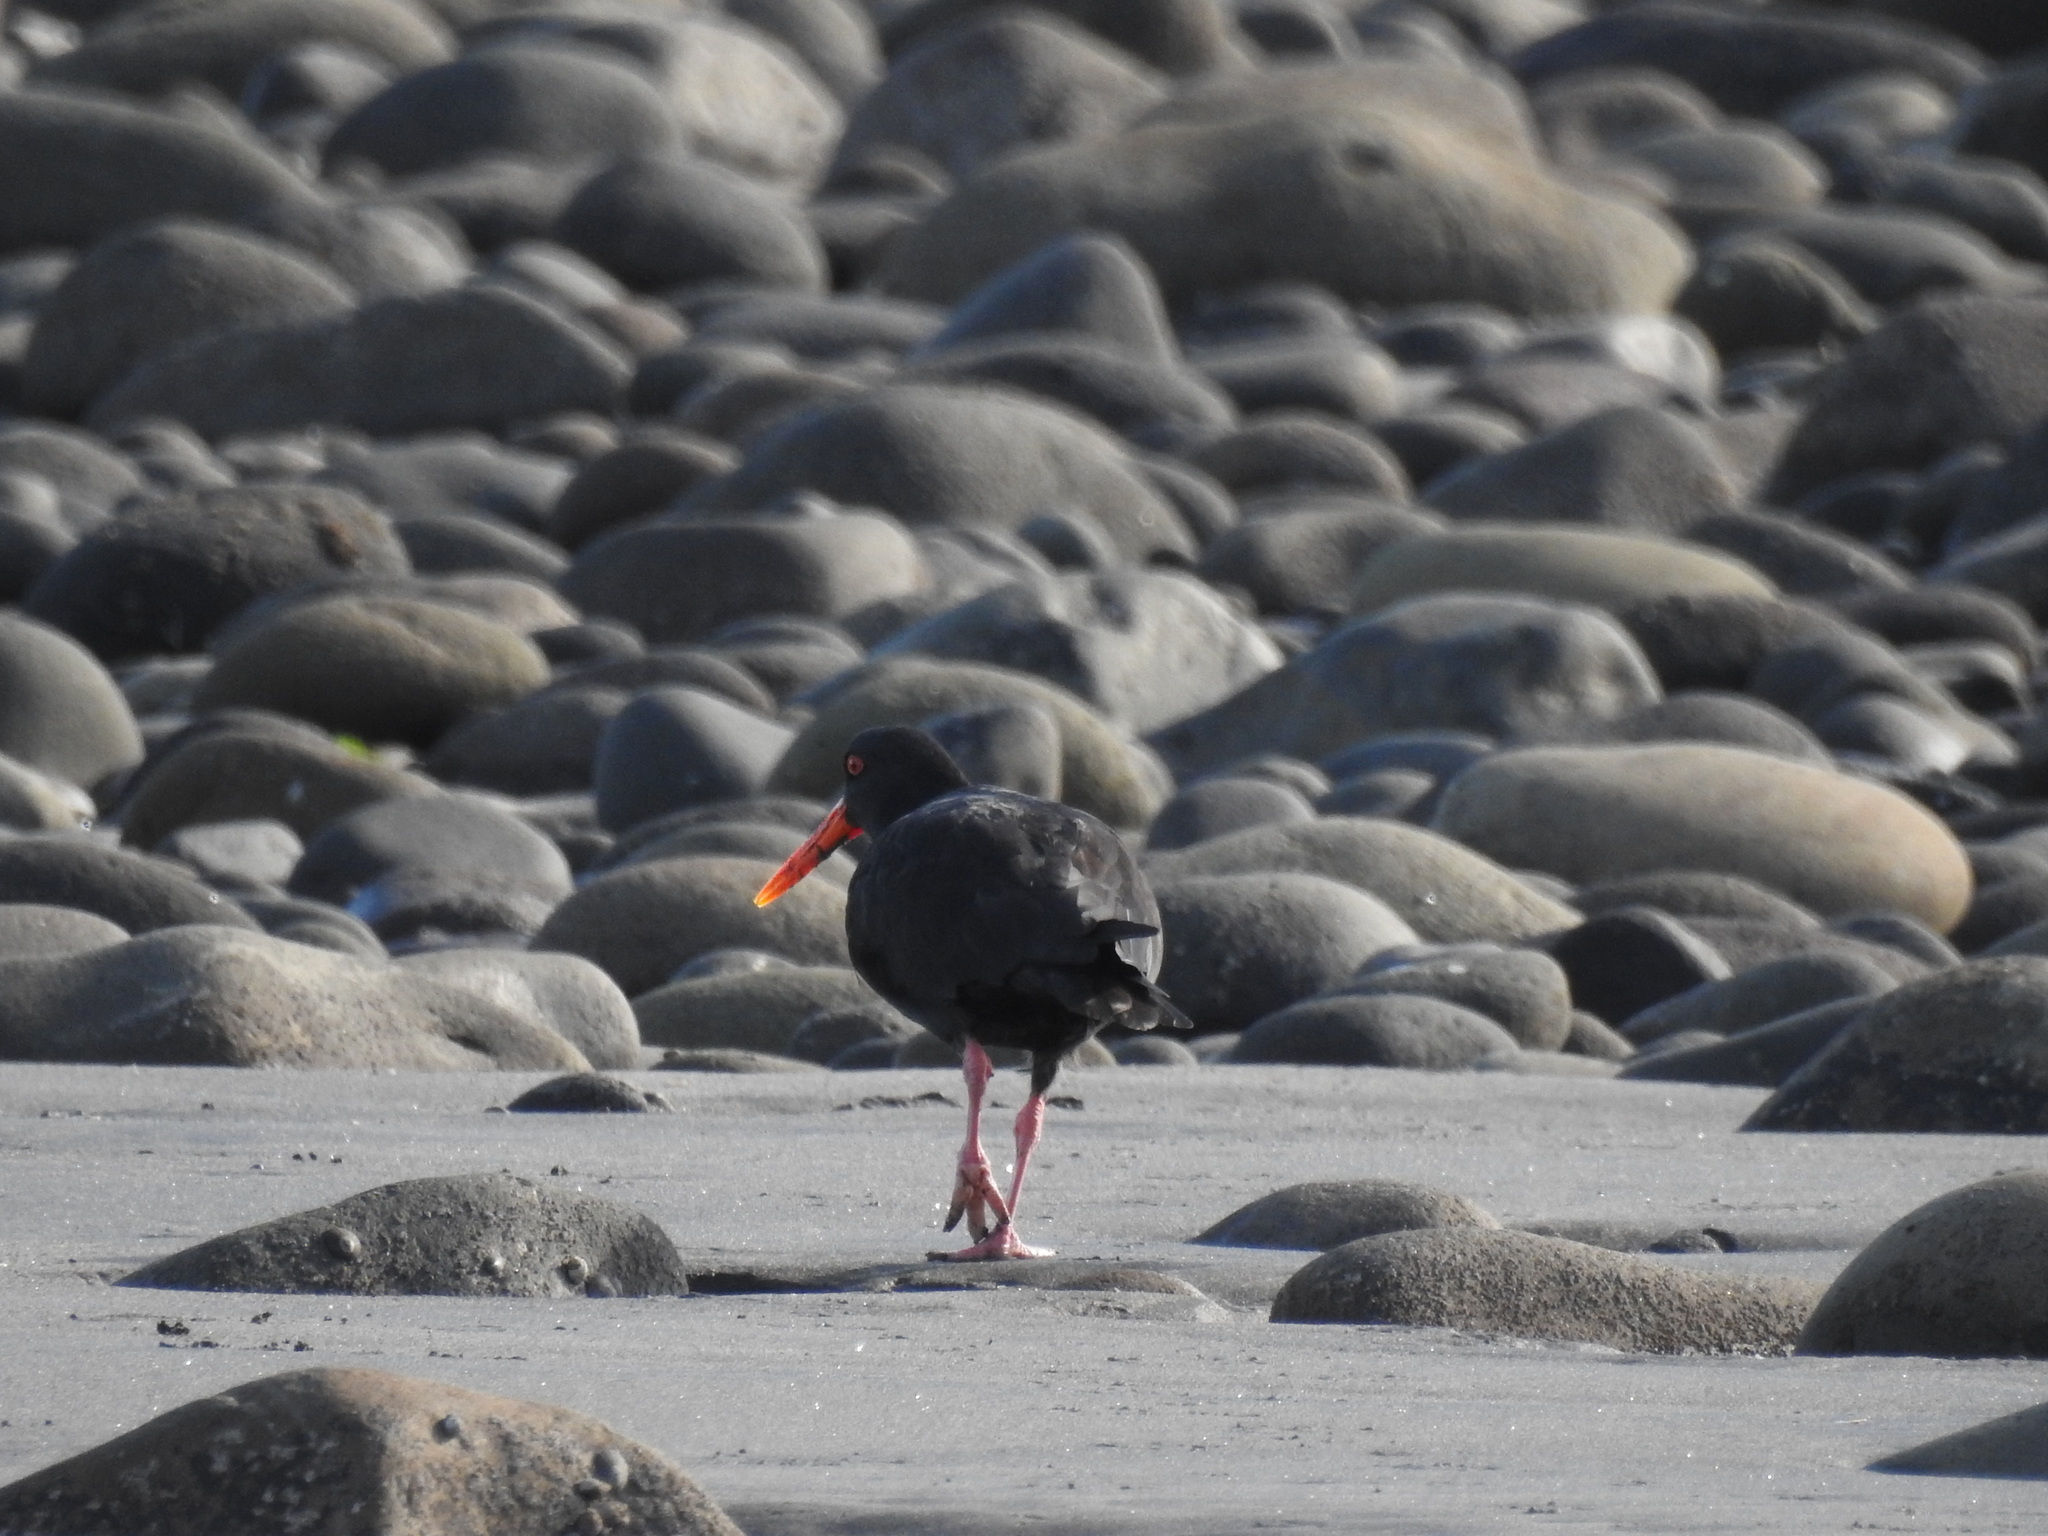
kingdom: Animalia
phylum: Chordata
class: Aves
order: Charadriiformes
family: Haematopodidae
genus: Haematopus
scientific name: Haematopus unicolor
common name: Variable oystercatcher
